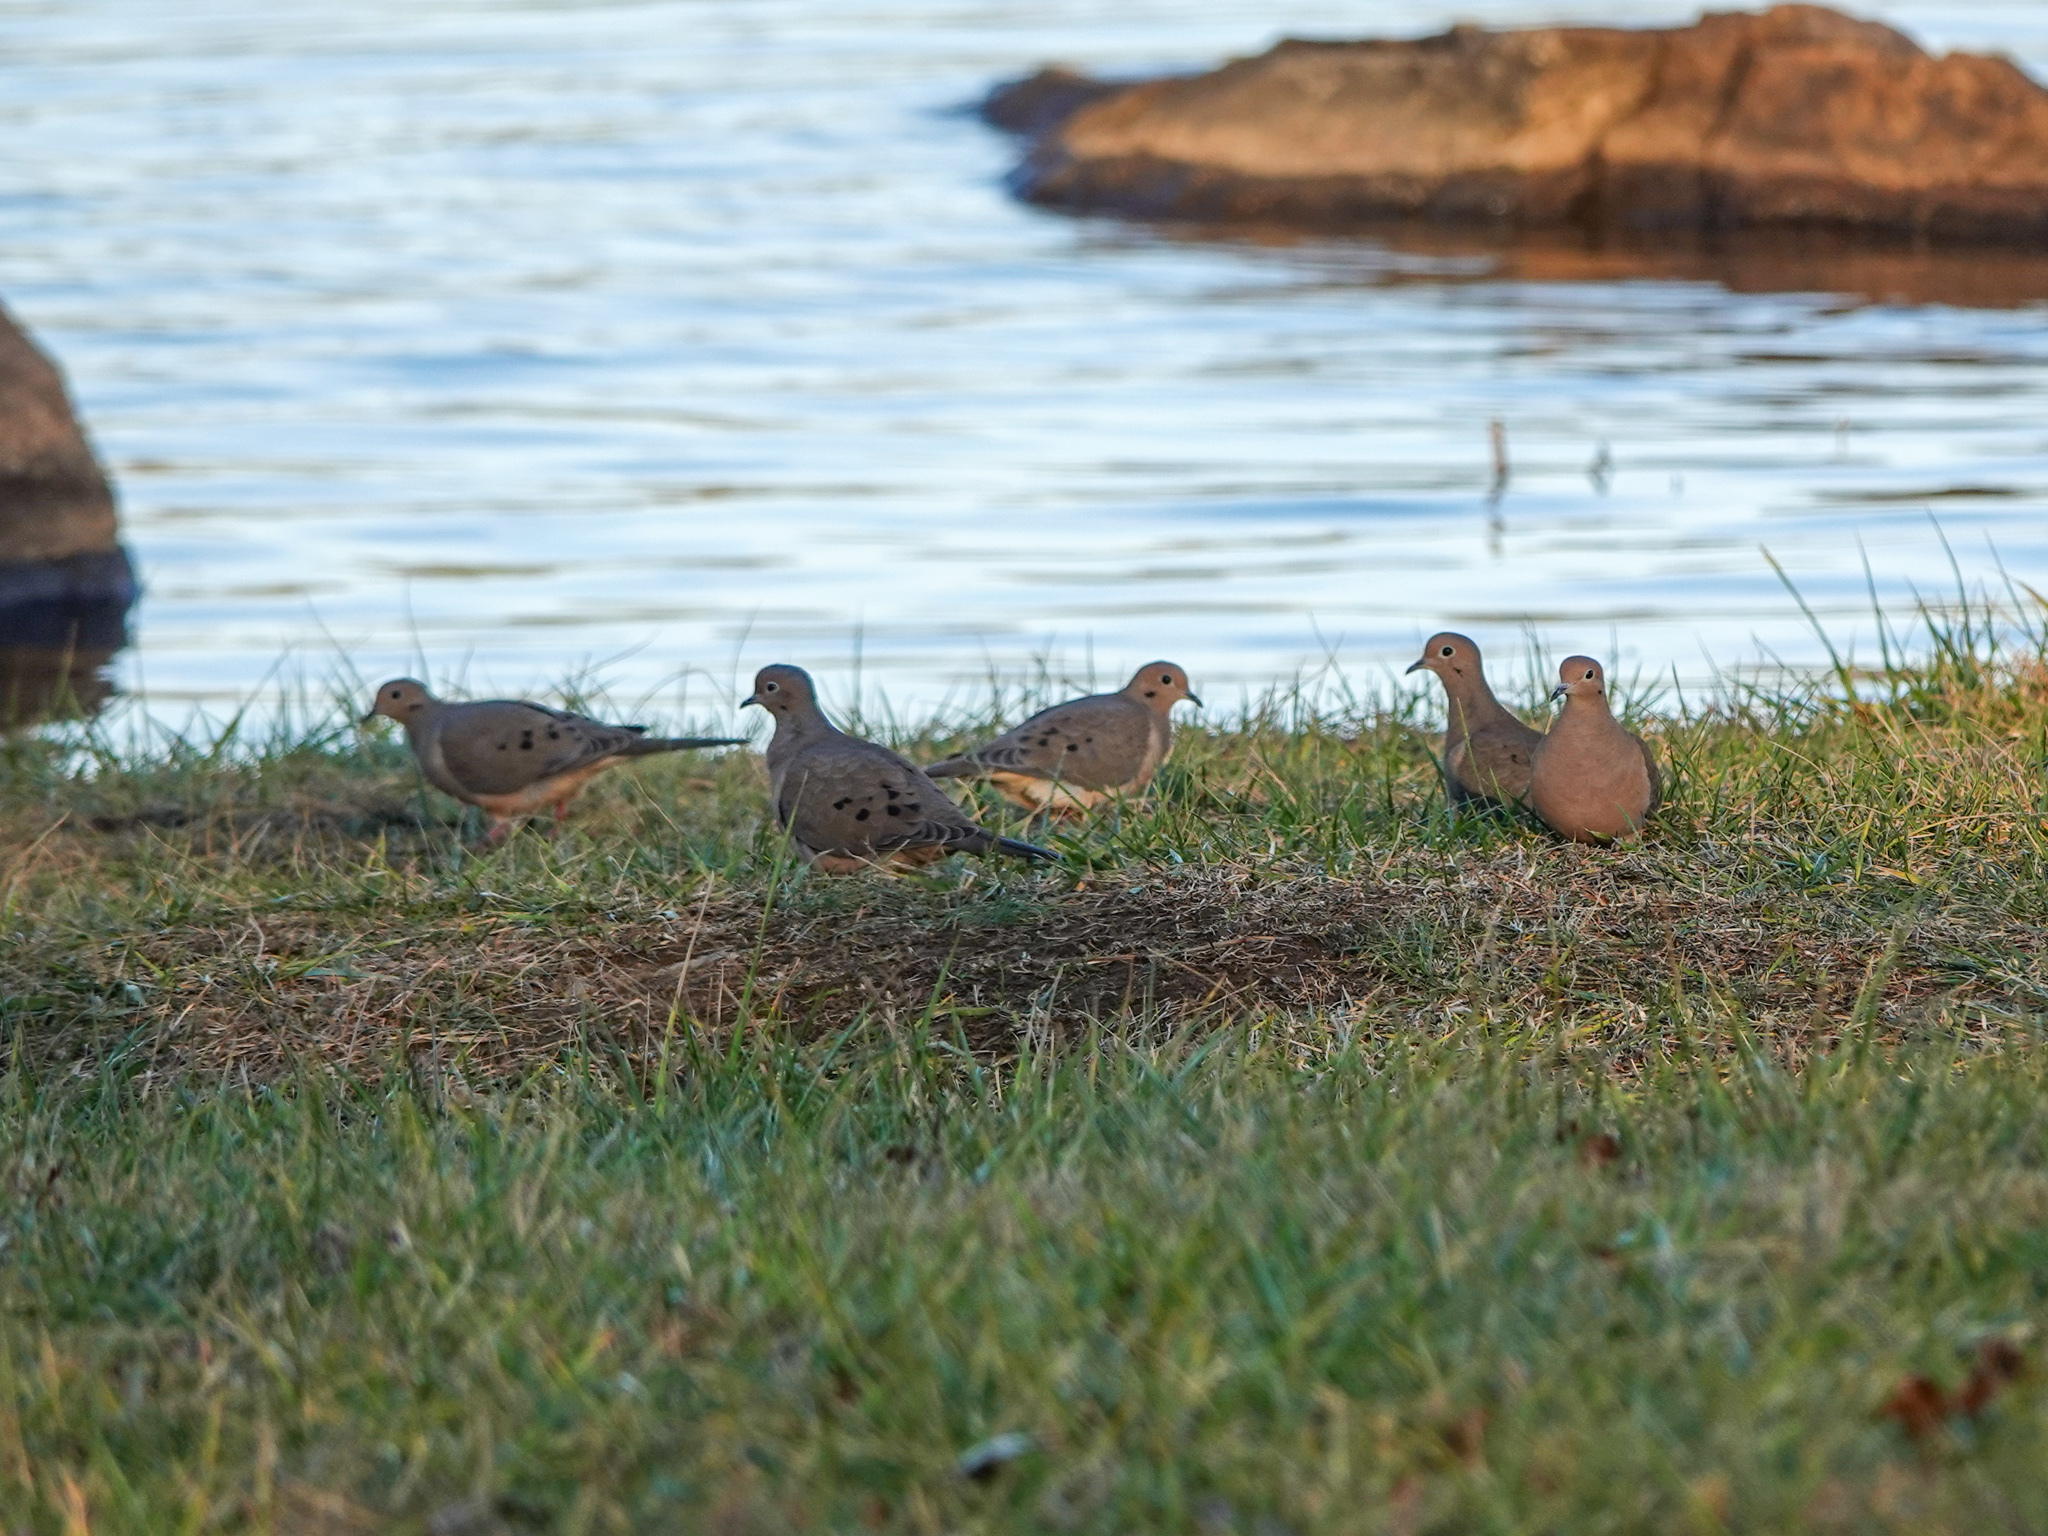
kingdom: Animalia
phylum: Chordata
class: Aves
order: Columbiformes
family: Columbidae
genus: Zenaida
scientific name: Zenaida macroura
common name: Mourning dove
